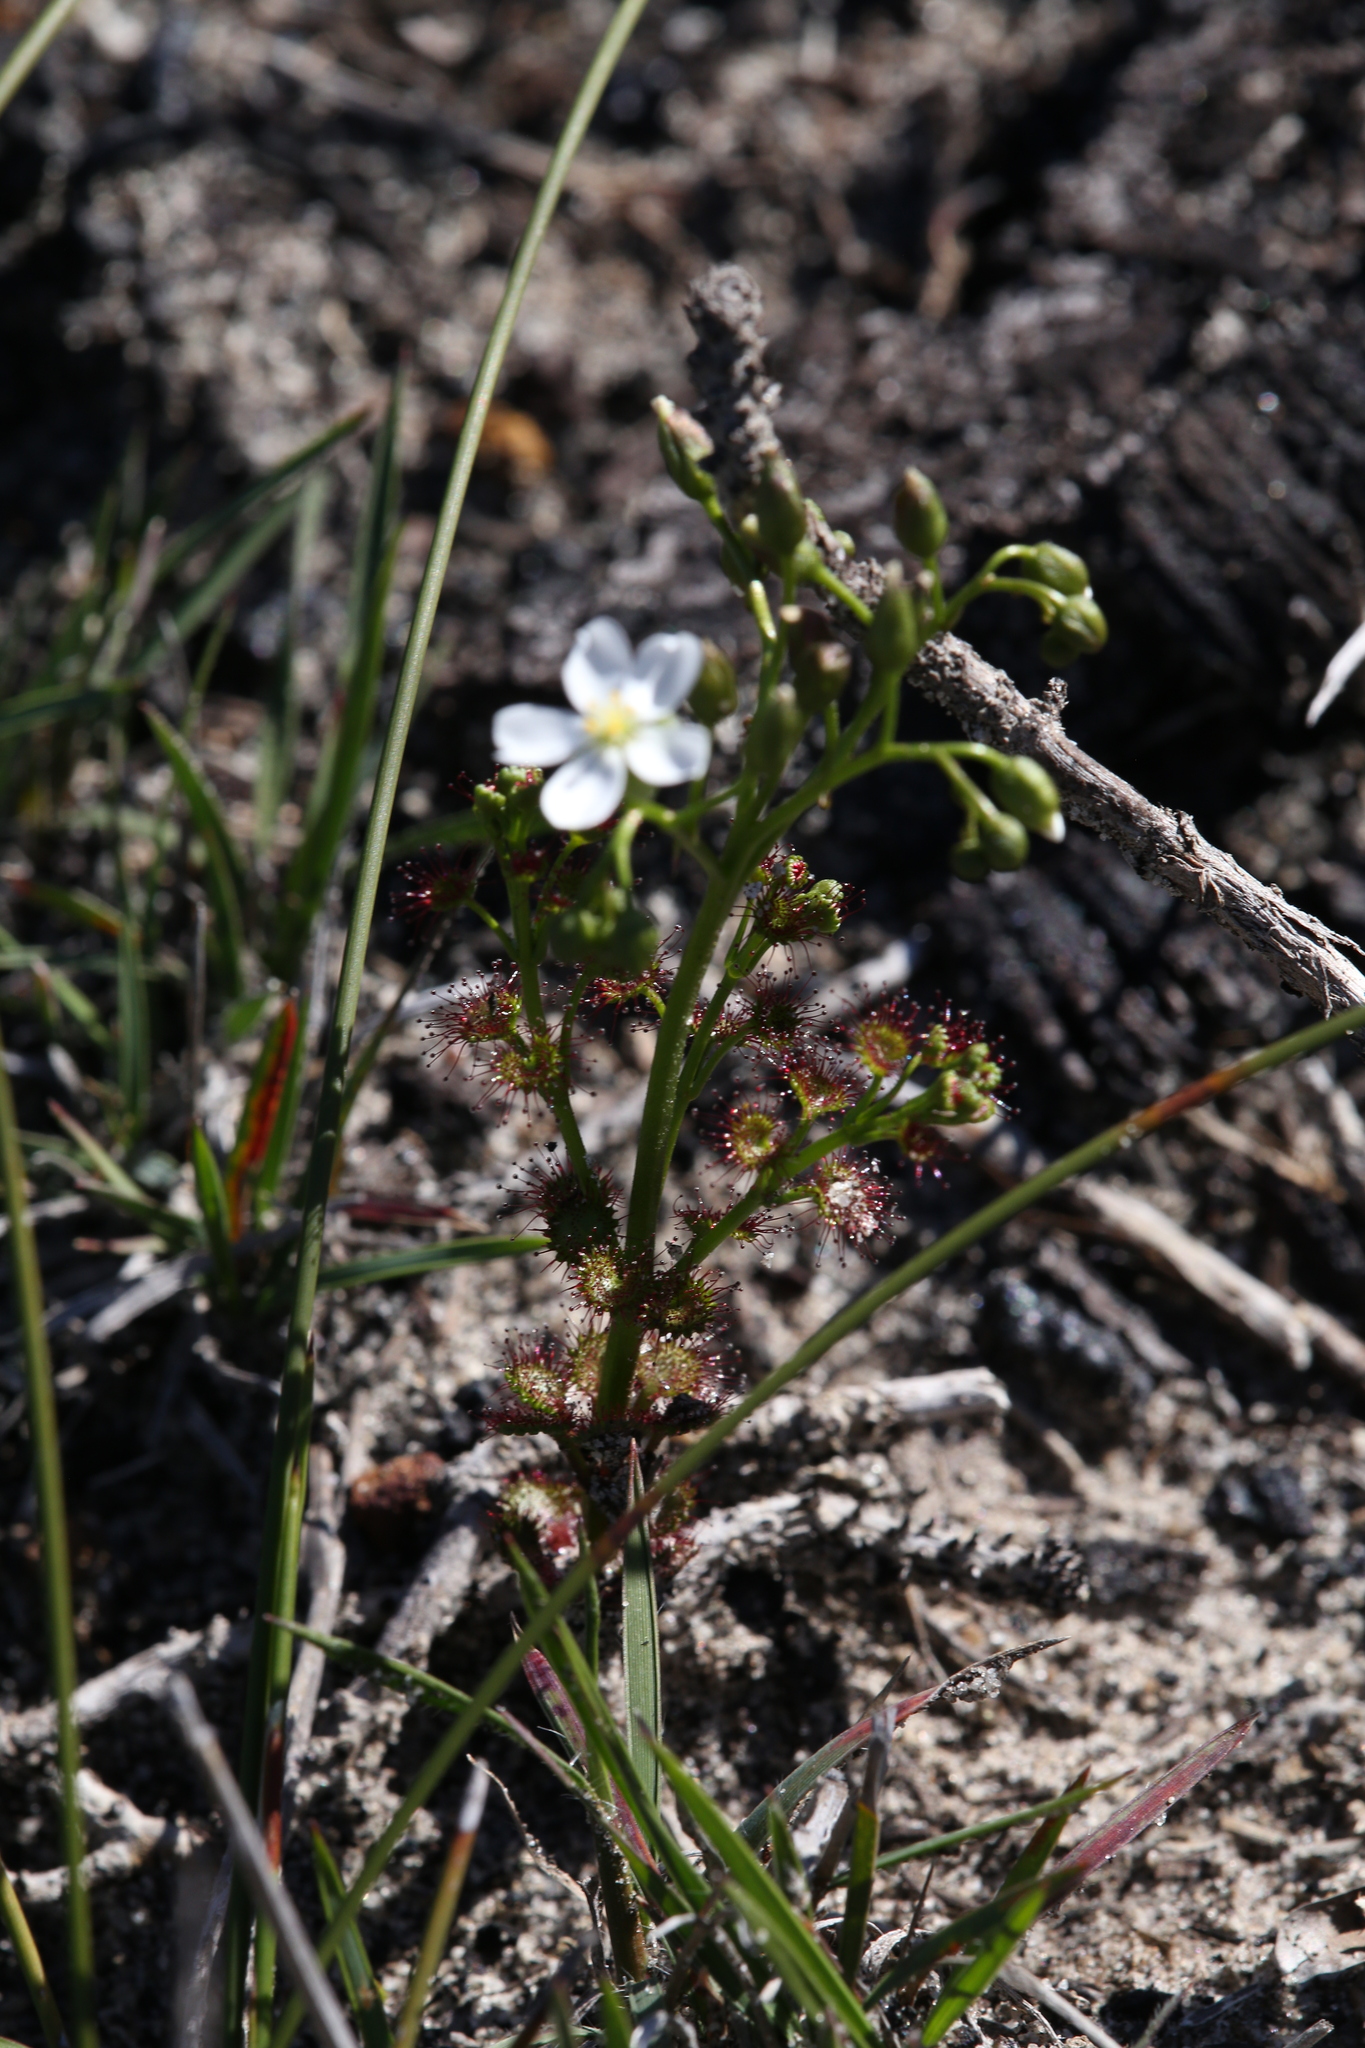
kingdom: Plantae
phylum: Tracheophyta
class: Magnoliopsida
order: Caryophyllales
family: Droseraceae
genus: Drosera
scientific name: Drosera stolonifera
